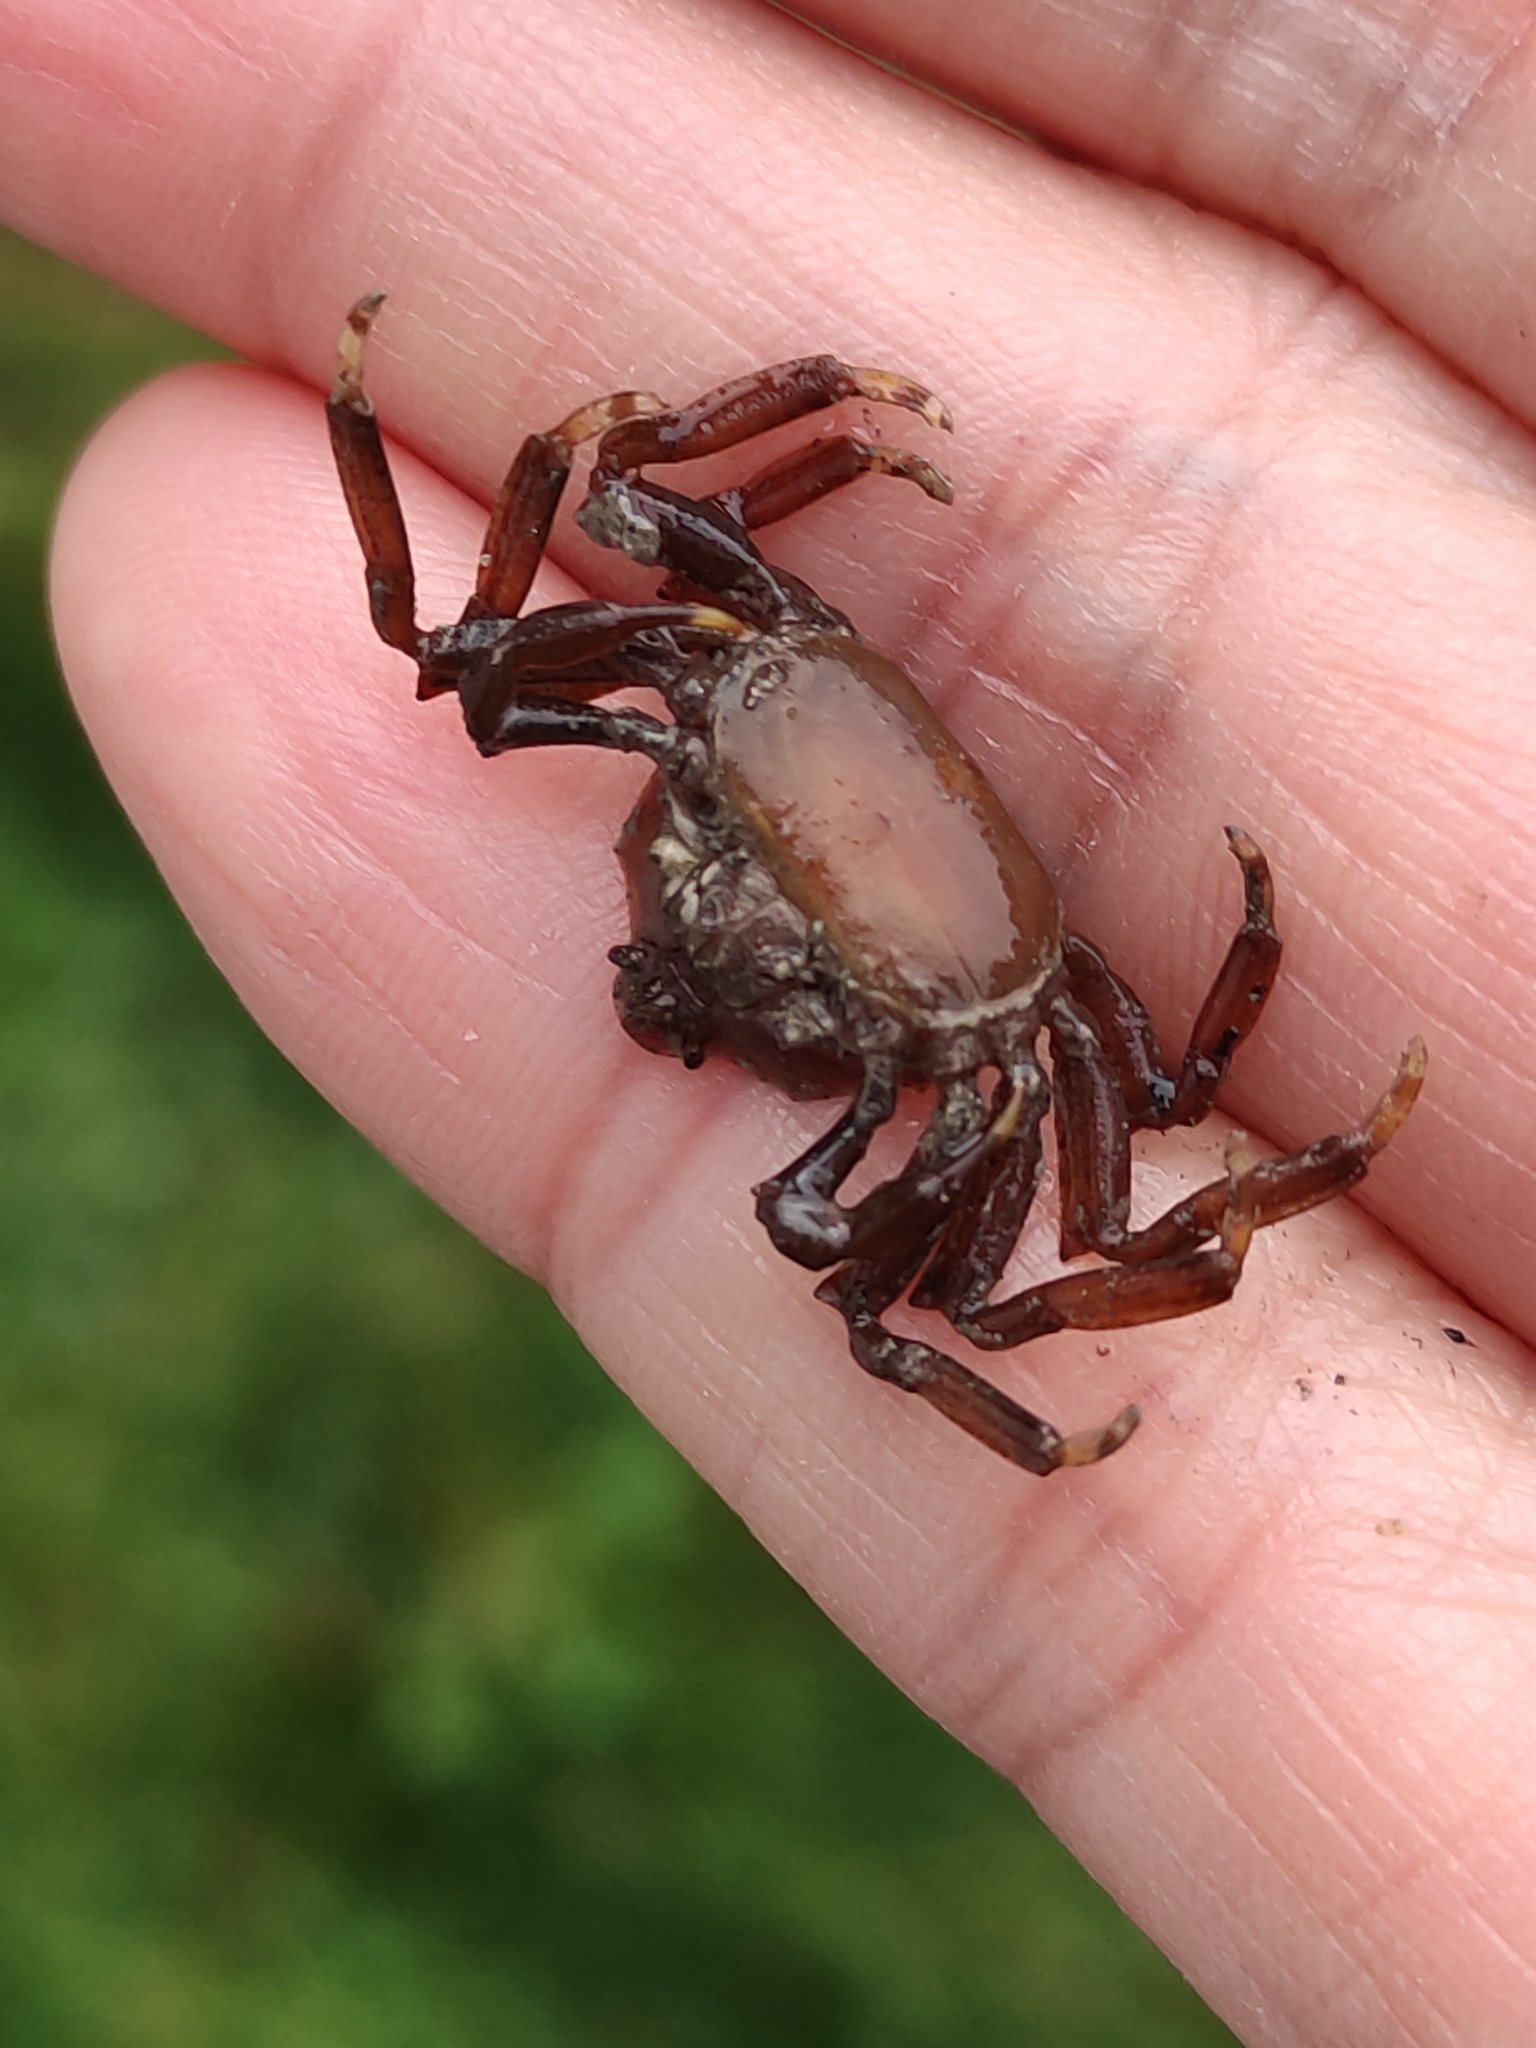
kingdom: Animalia
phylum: Arthropoda
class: Malacostraca
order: Decapoda
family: Hymenosomatidae
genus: Elamena
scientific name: Elamena producta
